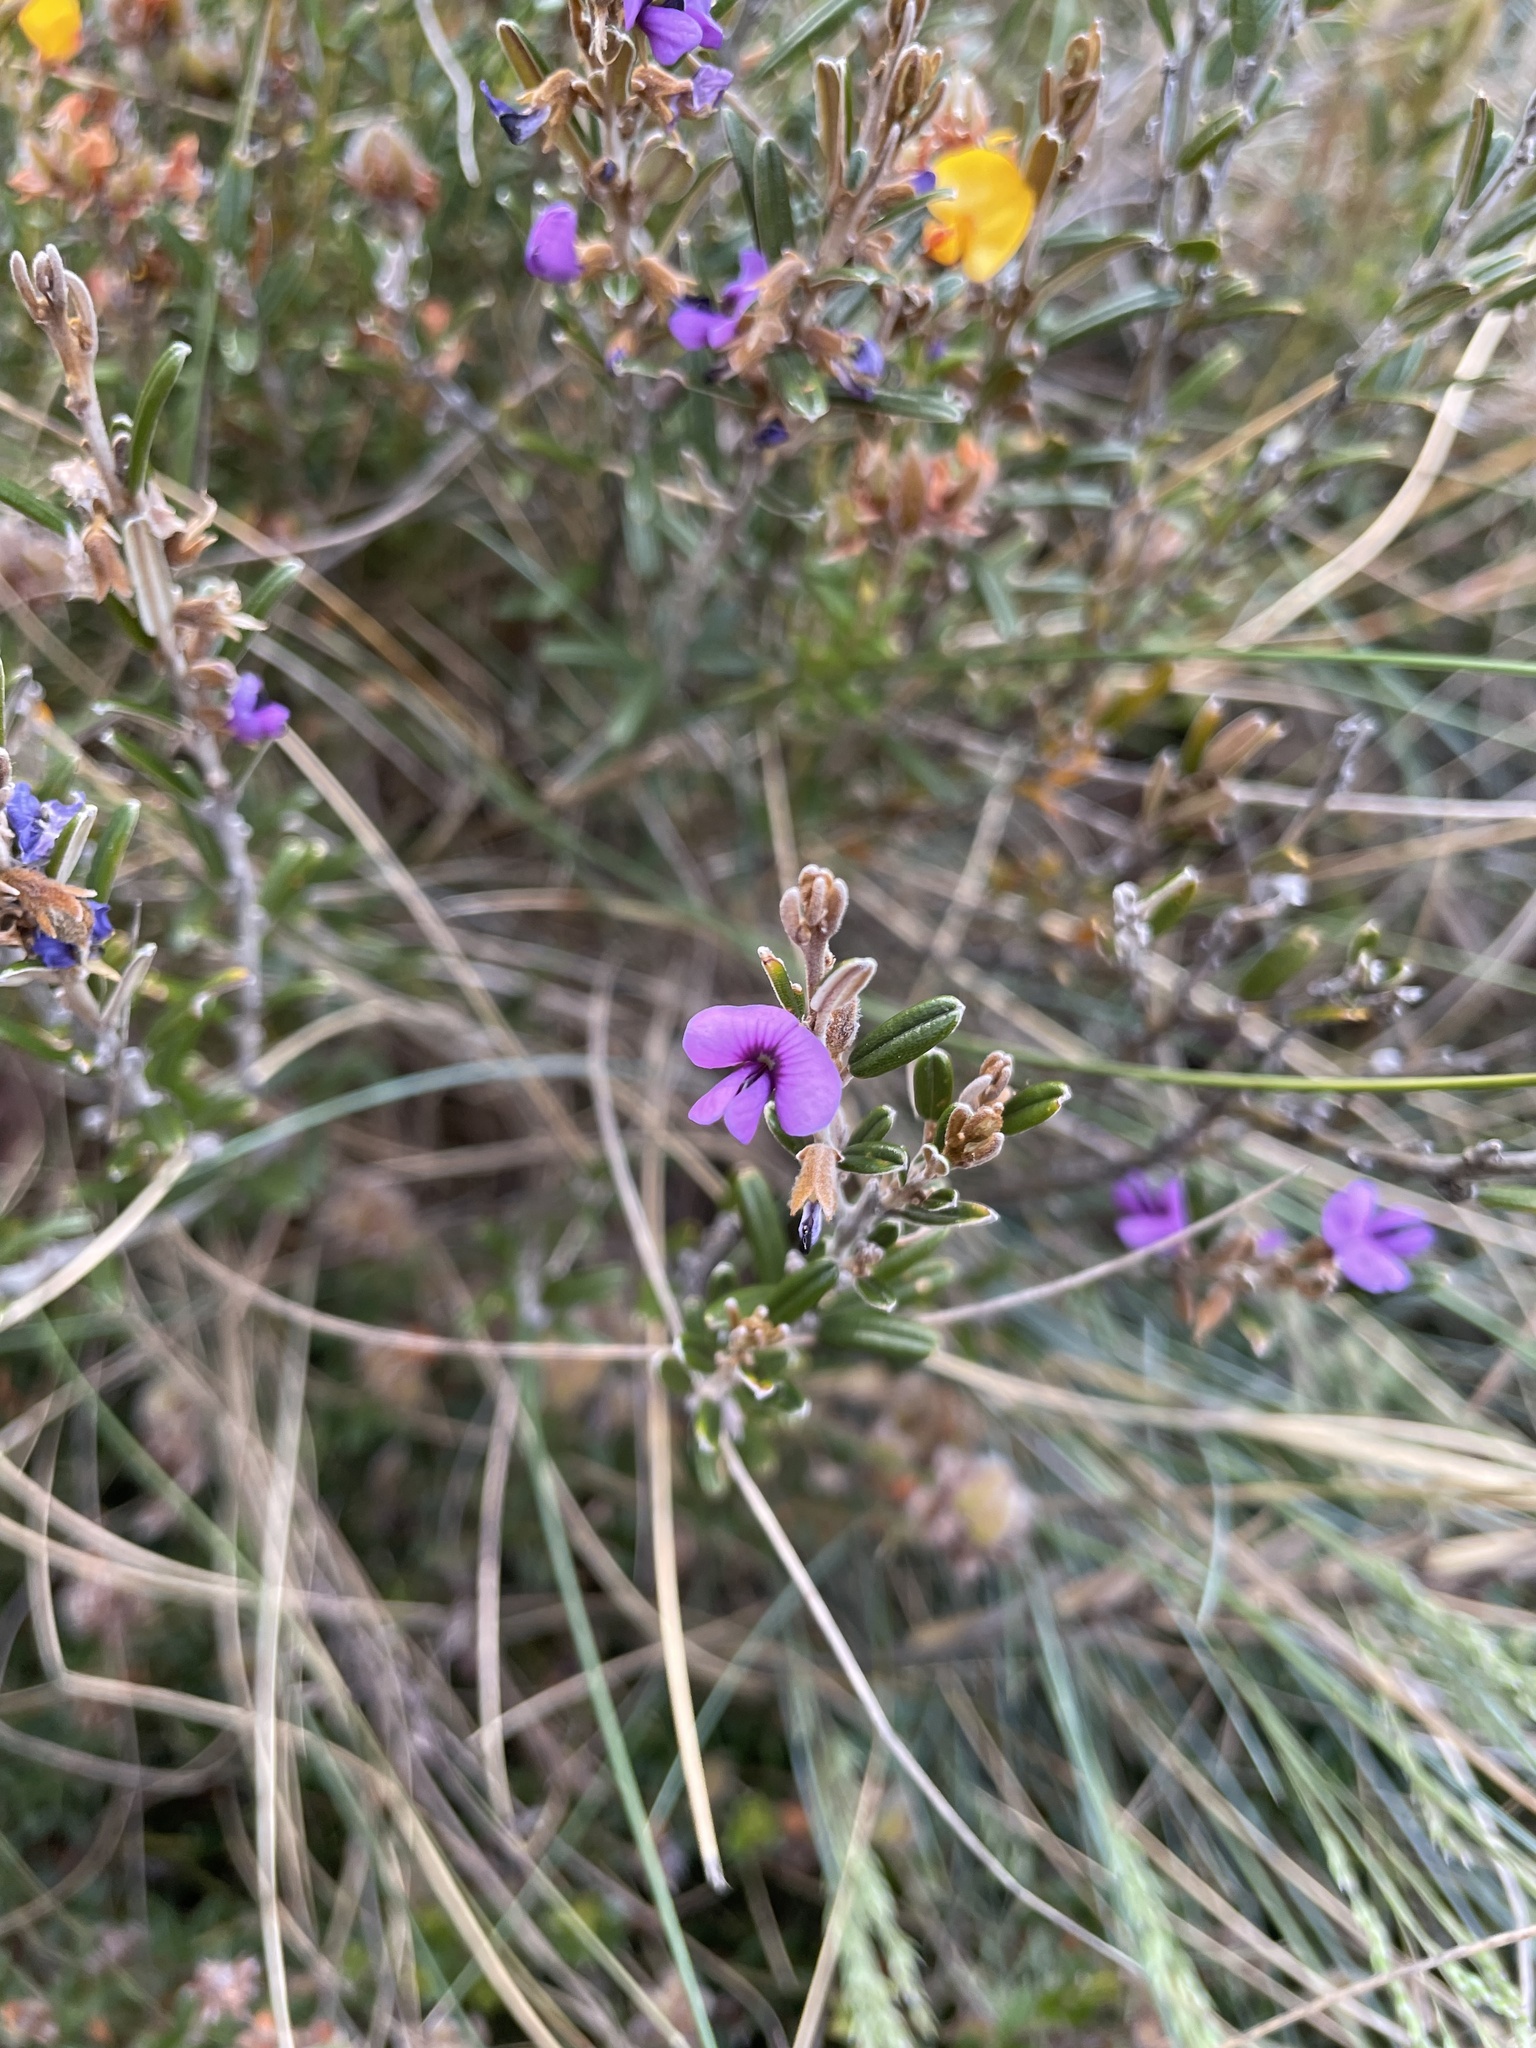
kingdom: Plantae
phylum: Tracheophyta
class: Magnoliopsida
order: Fabales
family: Fabaceae
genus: Hovea
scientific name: Hovea montana
